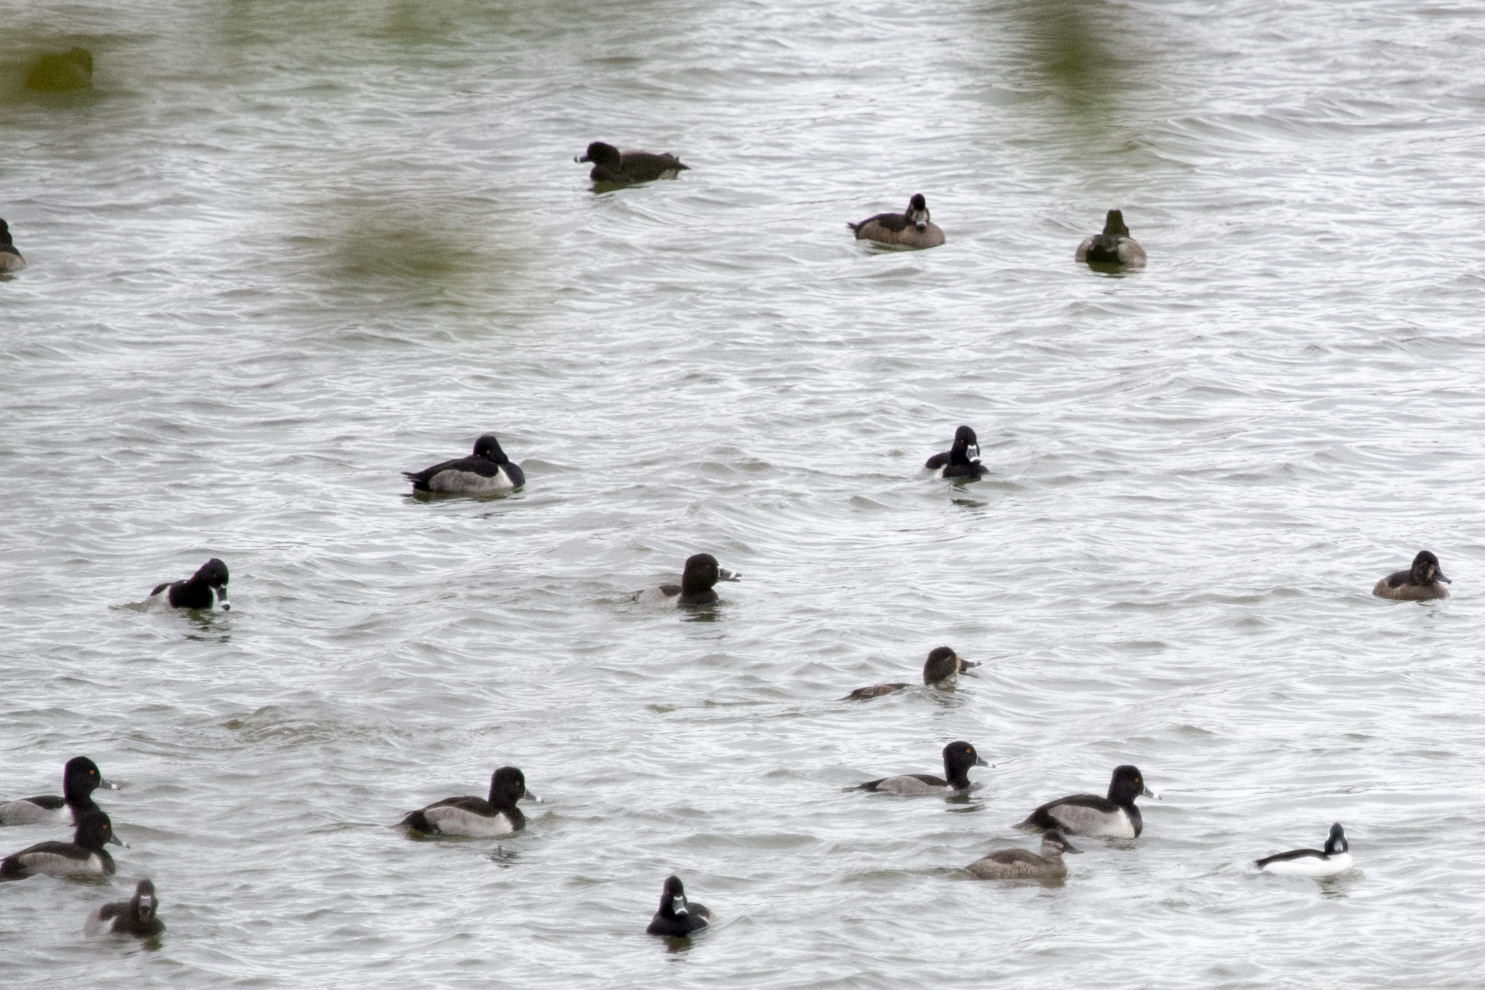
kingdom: Animalia
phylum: Chordata
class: Aves
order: Anseriformes
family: Anatidae
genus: Aythya
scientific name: Aythya collaris
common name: Ring-necked duck
